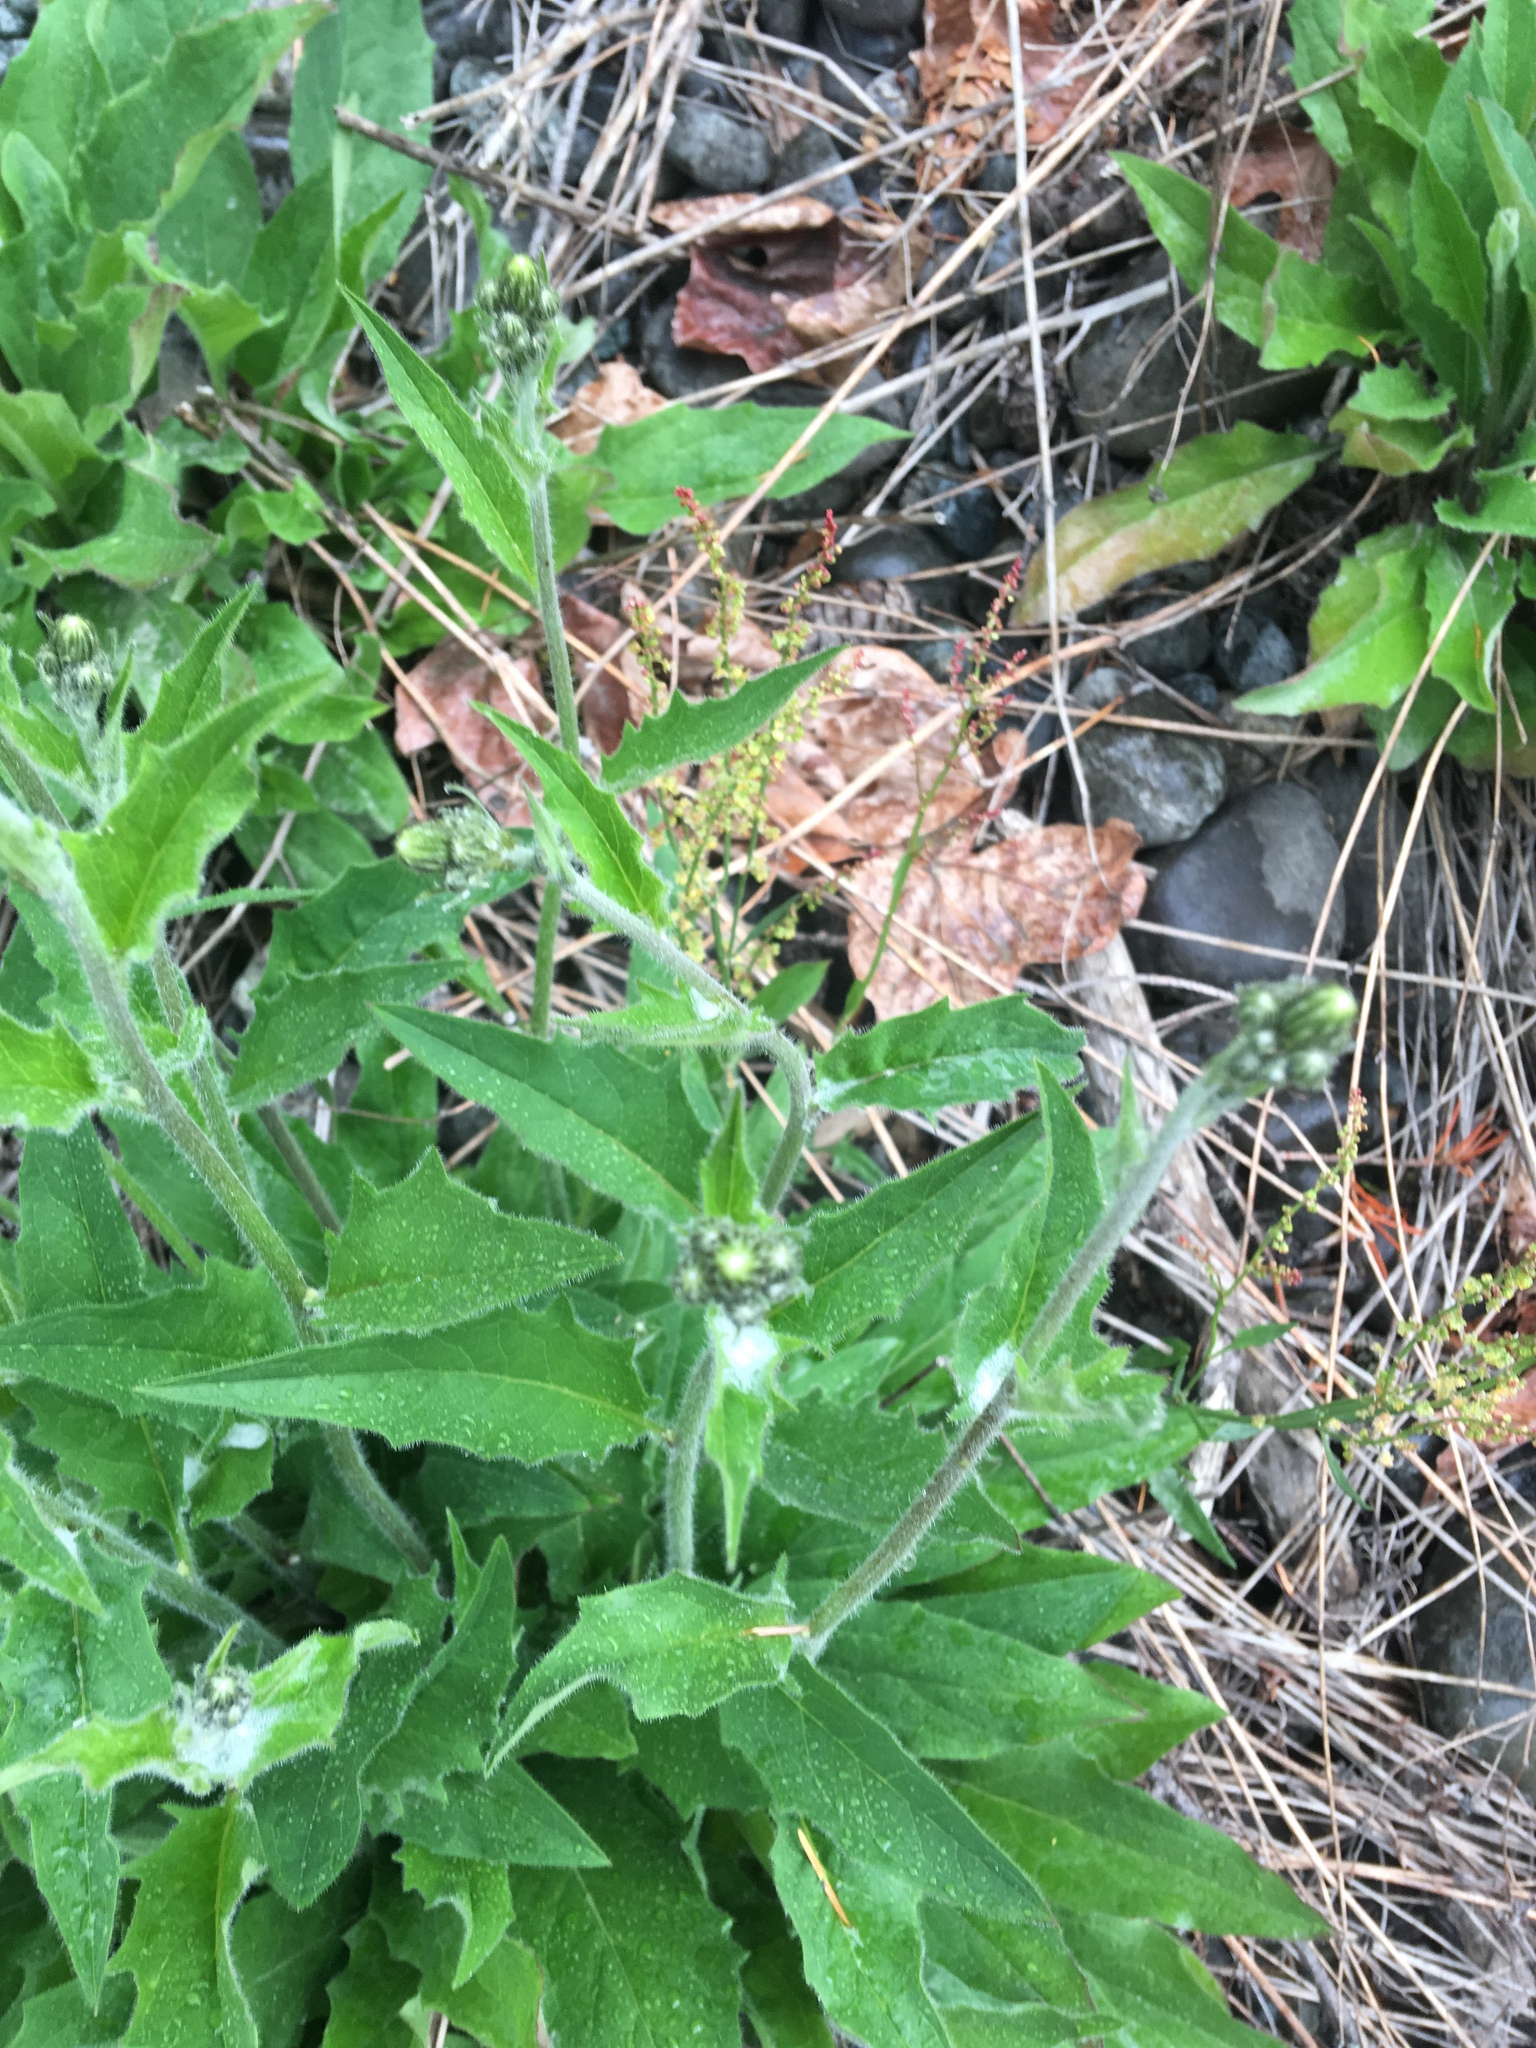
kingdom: Plantae
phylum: Tracheophyta
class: Magnoliopsida
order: Asterales
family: Asteraceae
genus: Hieracium
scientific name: Hieracium lachenalii
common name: Common hawkweed
